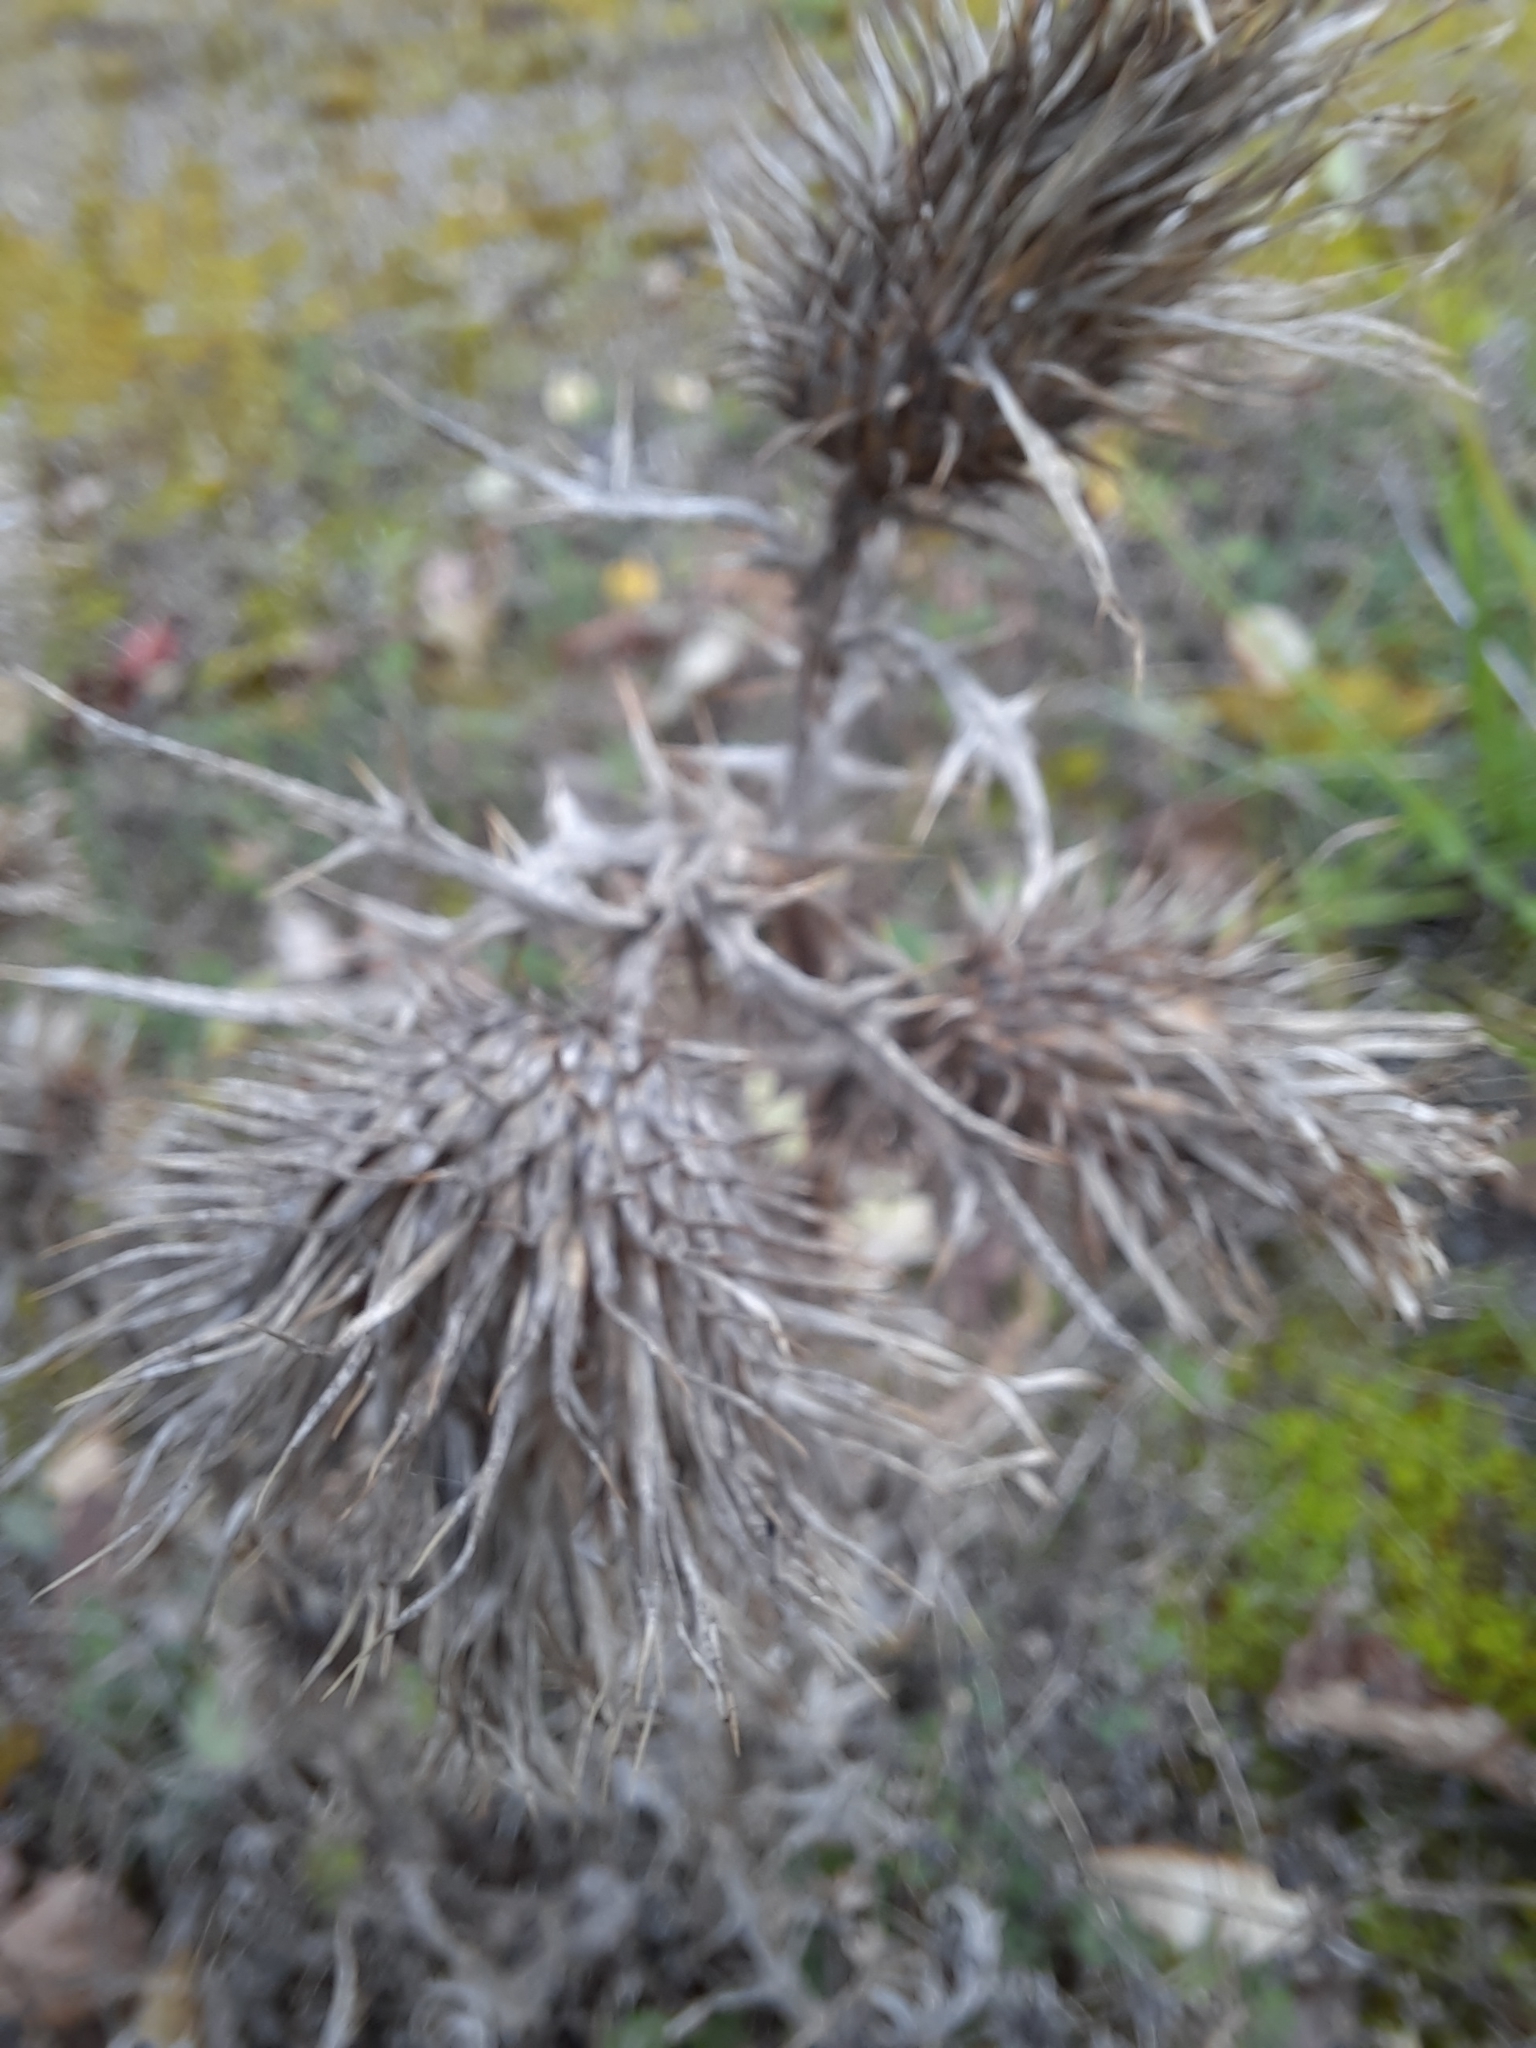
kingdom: Plantae
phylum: Tracheophyta
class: Magnoliopsida
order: Asterales
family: Asteraceae
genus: Cirsium
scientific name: Cirsium vulgare
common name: Bull thistle
